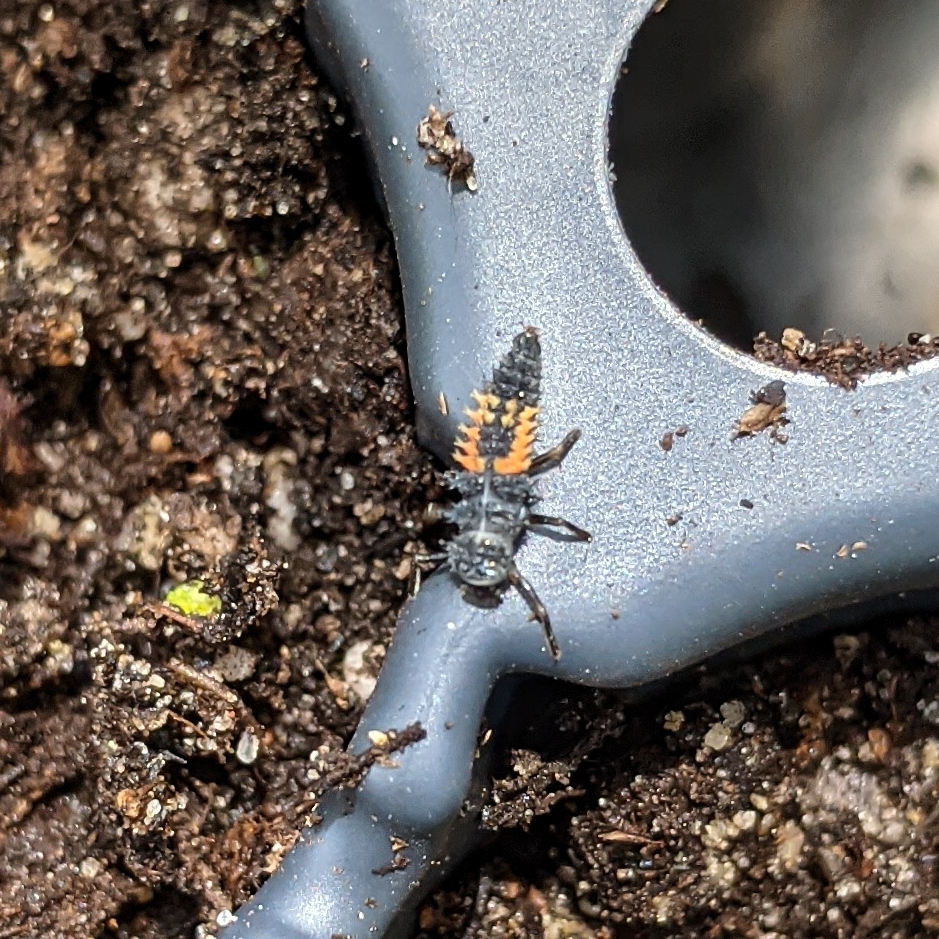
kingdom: Animalia
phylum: Arthropoda
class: Insecta
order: Coleoptera
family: Coccinellidae
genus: Harmonia
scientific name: Harmonia axyridis
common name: Harlequin ladybird
